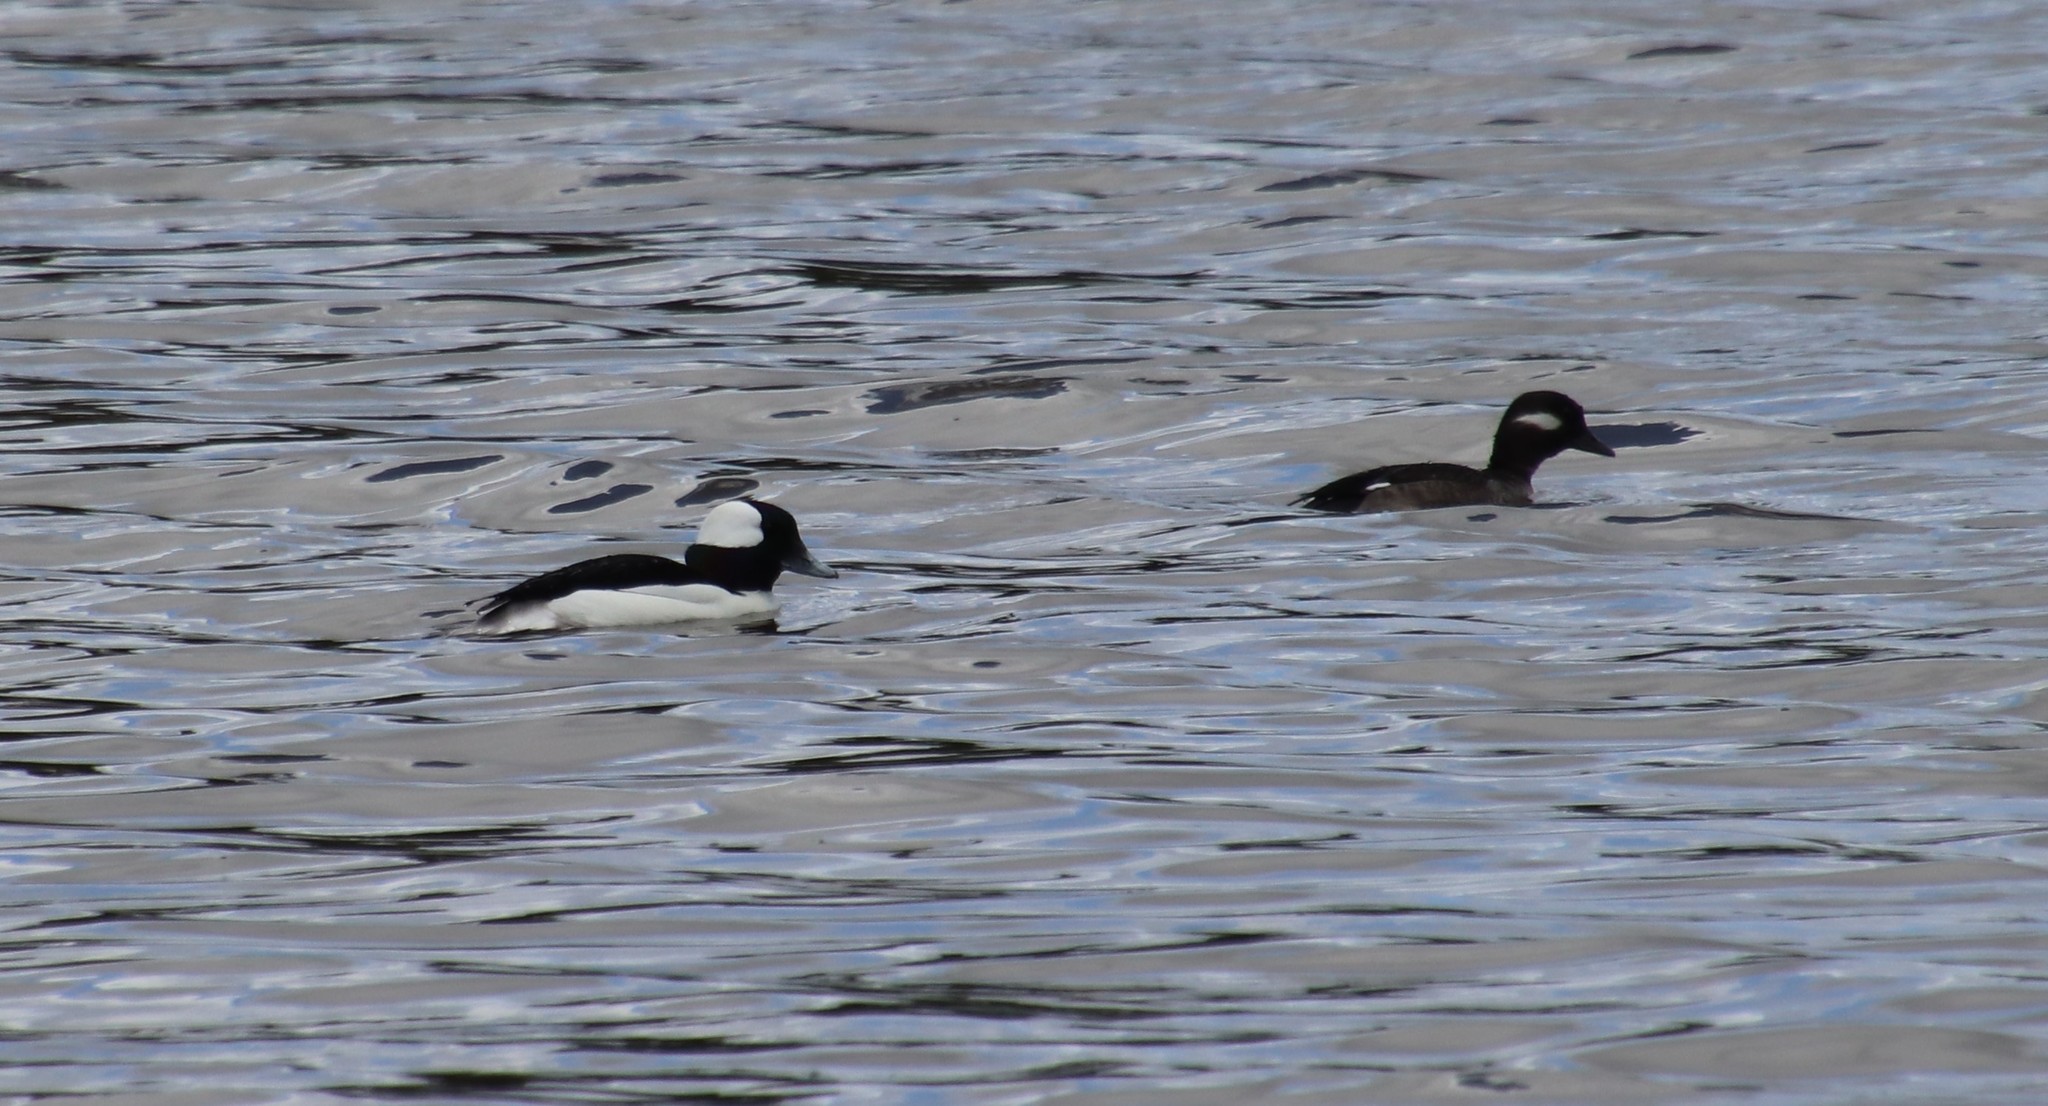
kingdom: Animalia
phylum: Chordata
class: Aves
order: Anseriformes
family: Anatidae
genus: Bucephala
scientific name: Bucephala albeola
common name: Bufflehead
